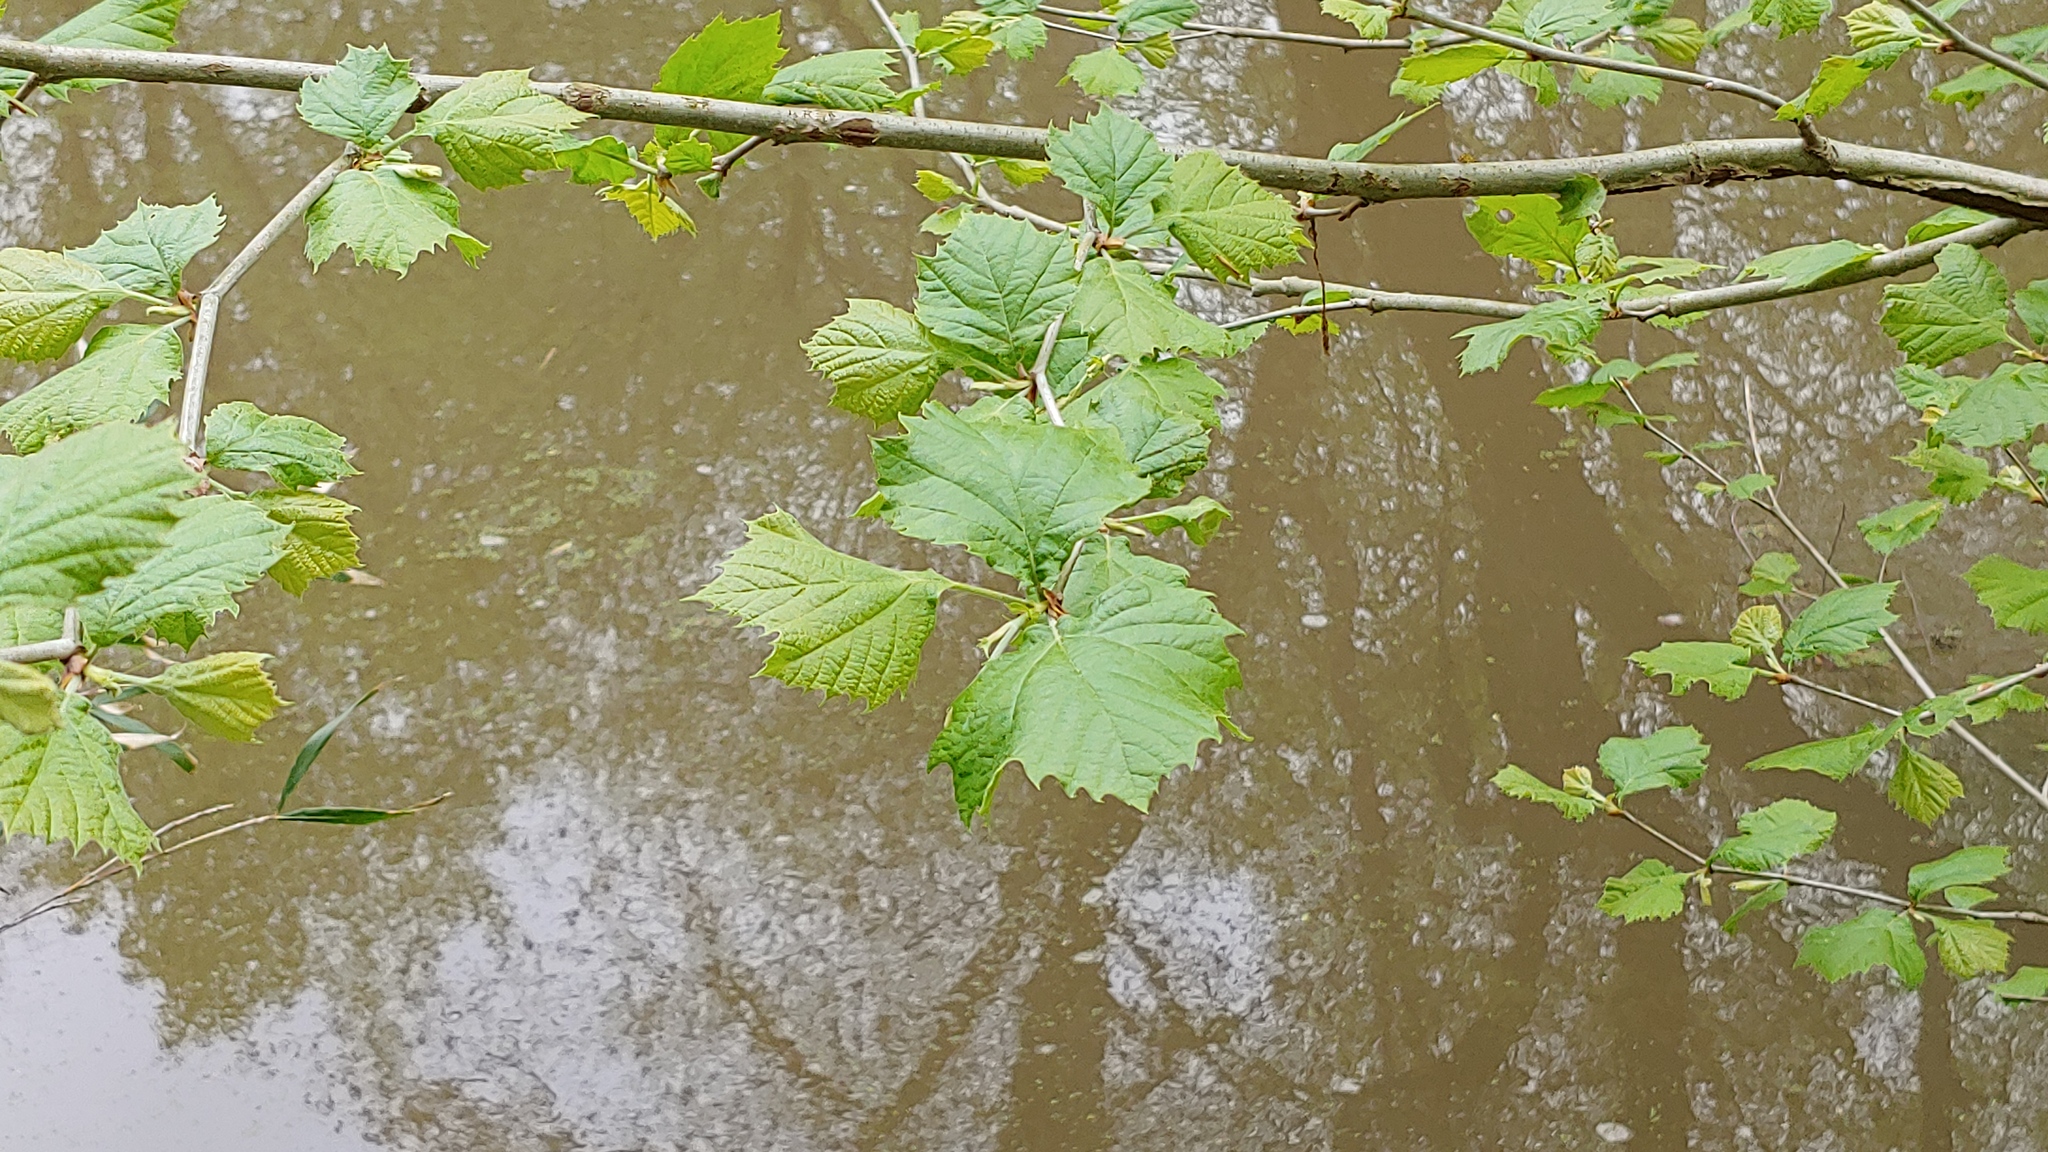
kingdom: Plantae
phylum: Tracheophyta
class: Magnoliopsida
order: Proteales
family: Platanaceae
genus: Platanus
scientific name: Platanus occidentalis
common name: American sycamore
